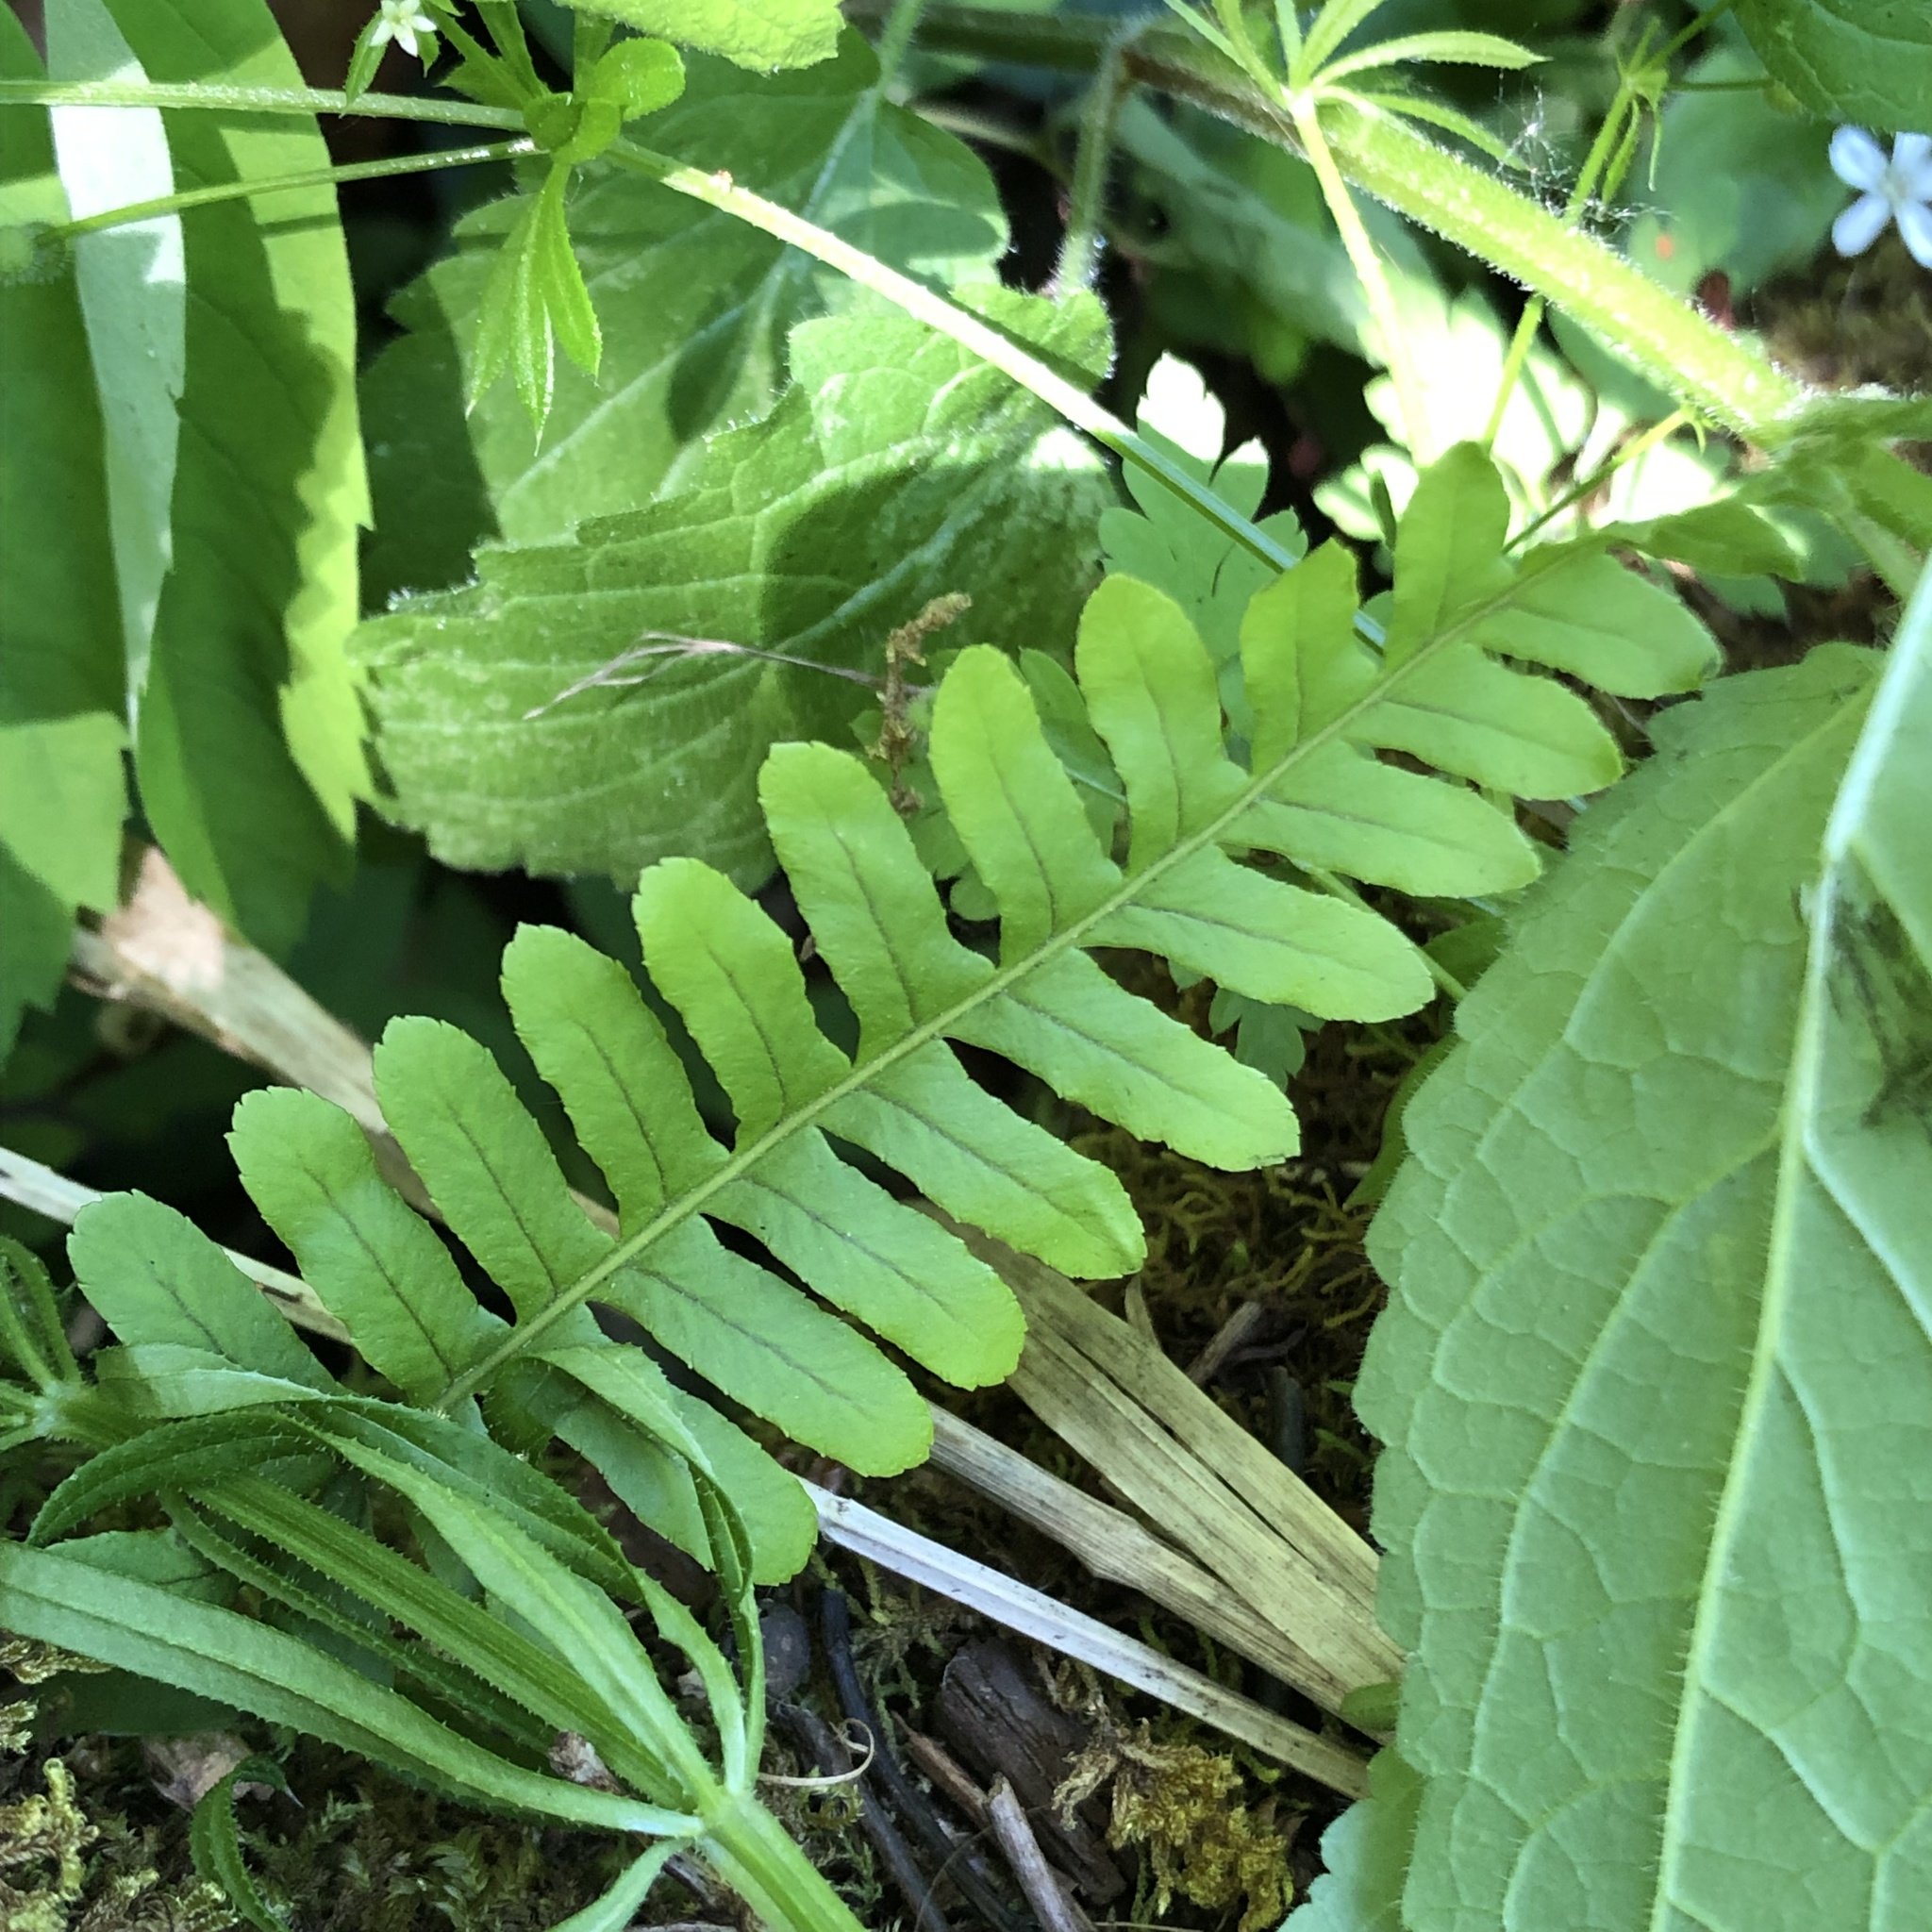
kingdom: Plantae
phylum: Tracheophyta
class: Polypodiopsida
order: Polypodiales
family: Polypodiaceae
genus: Polypodium
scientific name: Polypodium glycyrrhiza
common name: Licorice fern
